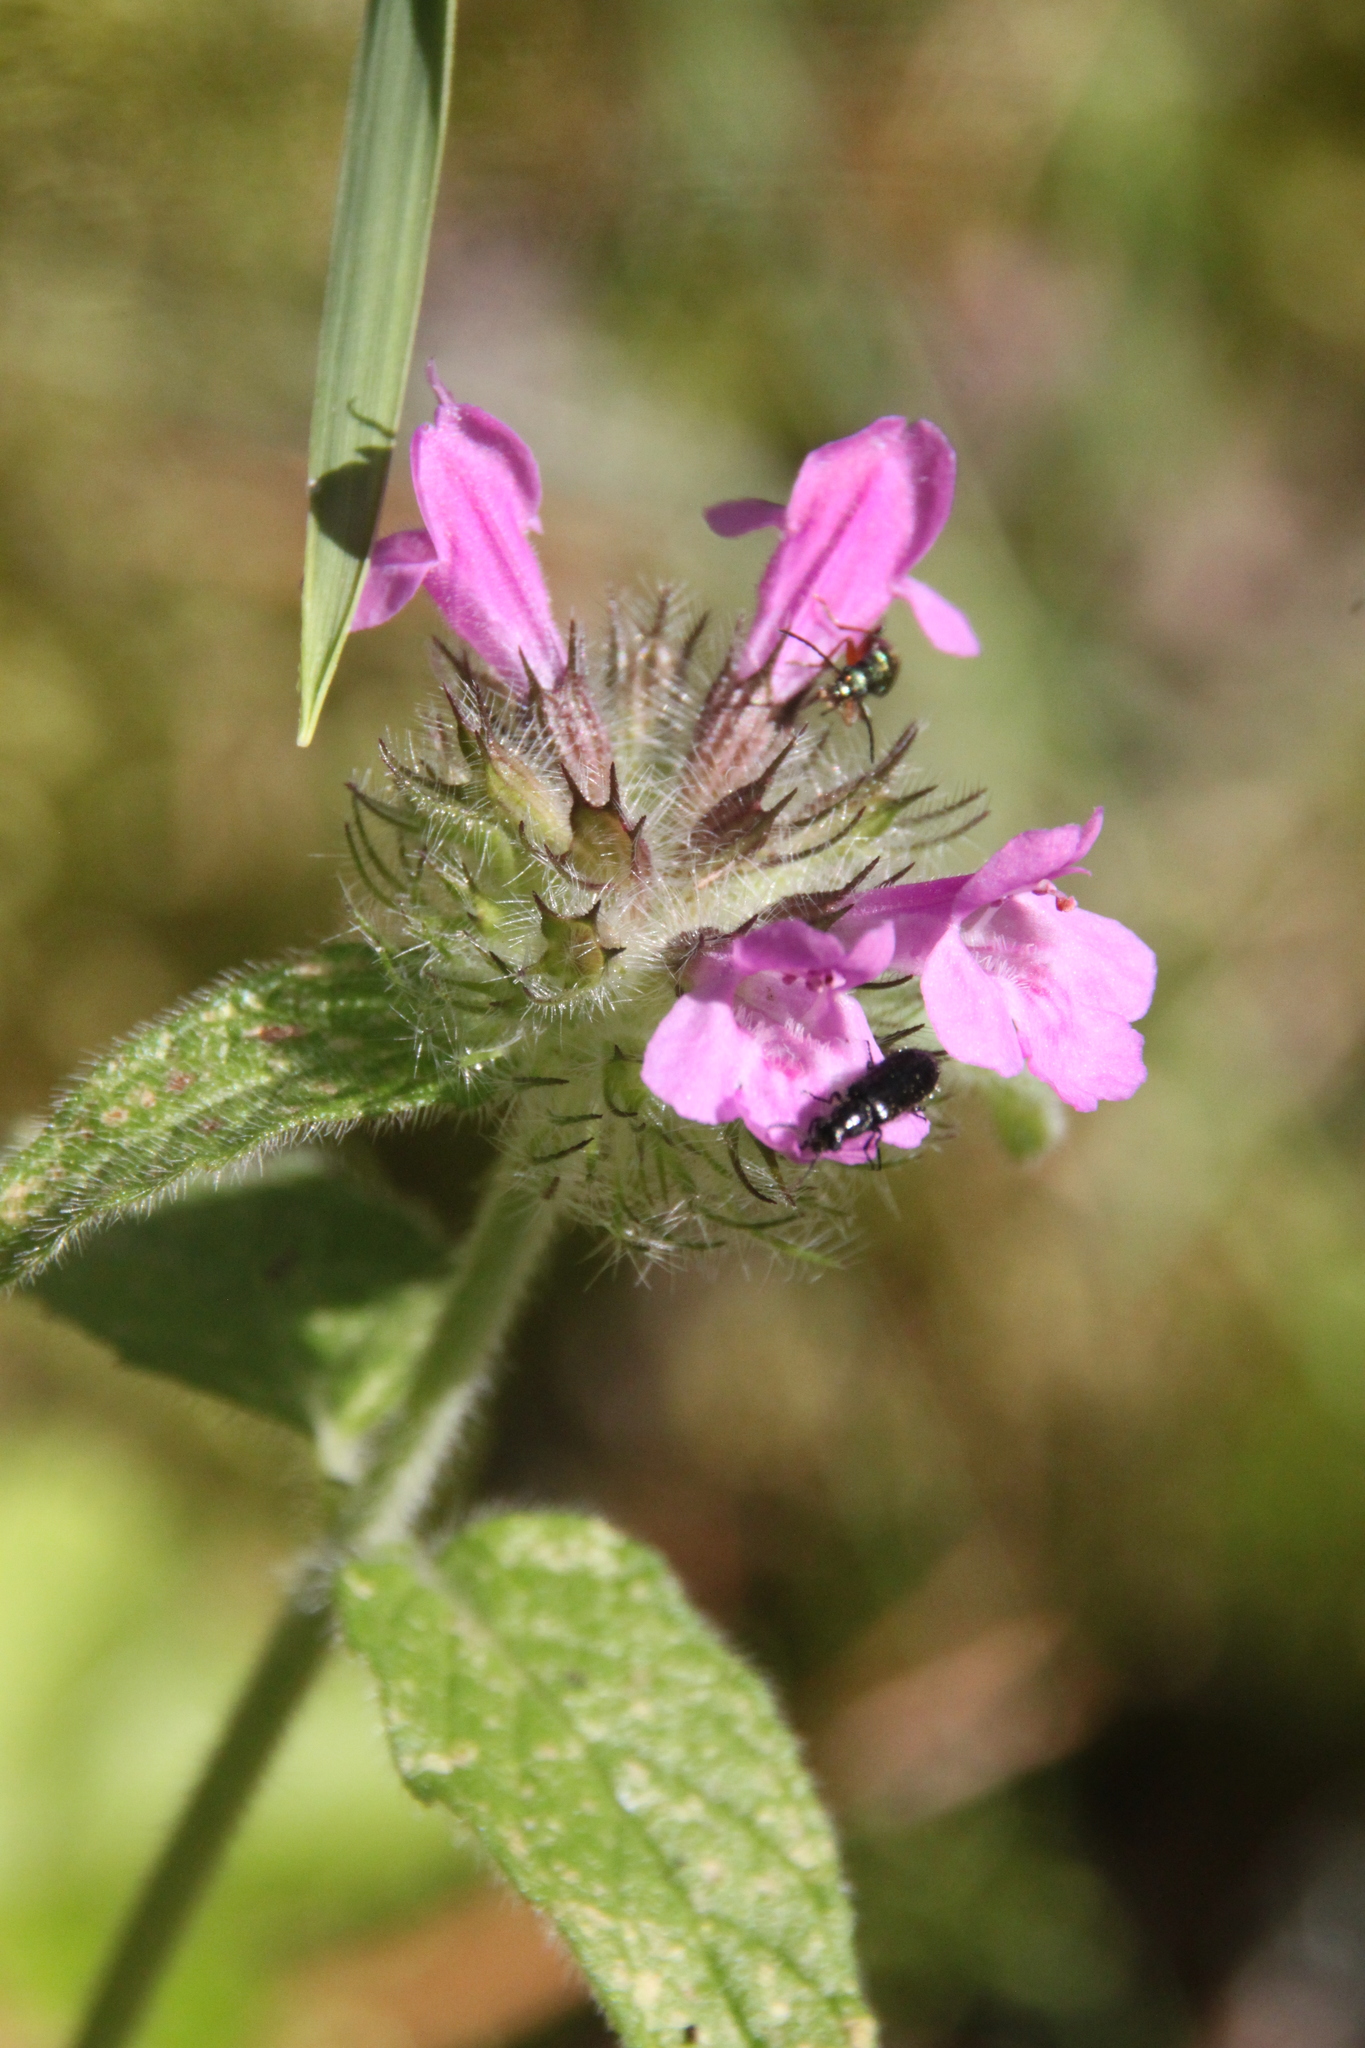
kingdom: Plantae
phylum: Tracheophyta
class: Magnoliopsida
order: Lamiales
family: Lamiaceae
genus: Clinopodium
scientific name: Clinopodium vulgare
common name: Wild basil
